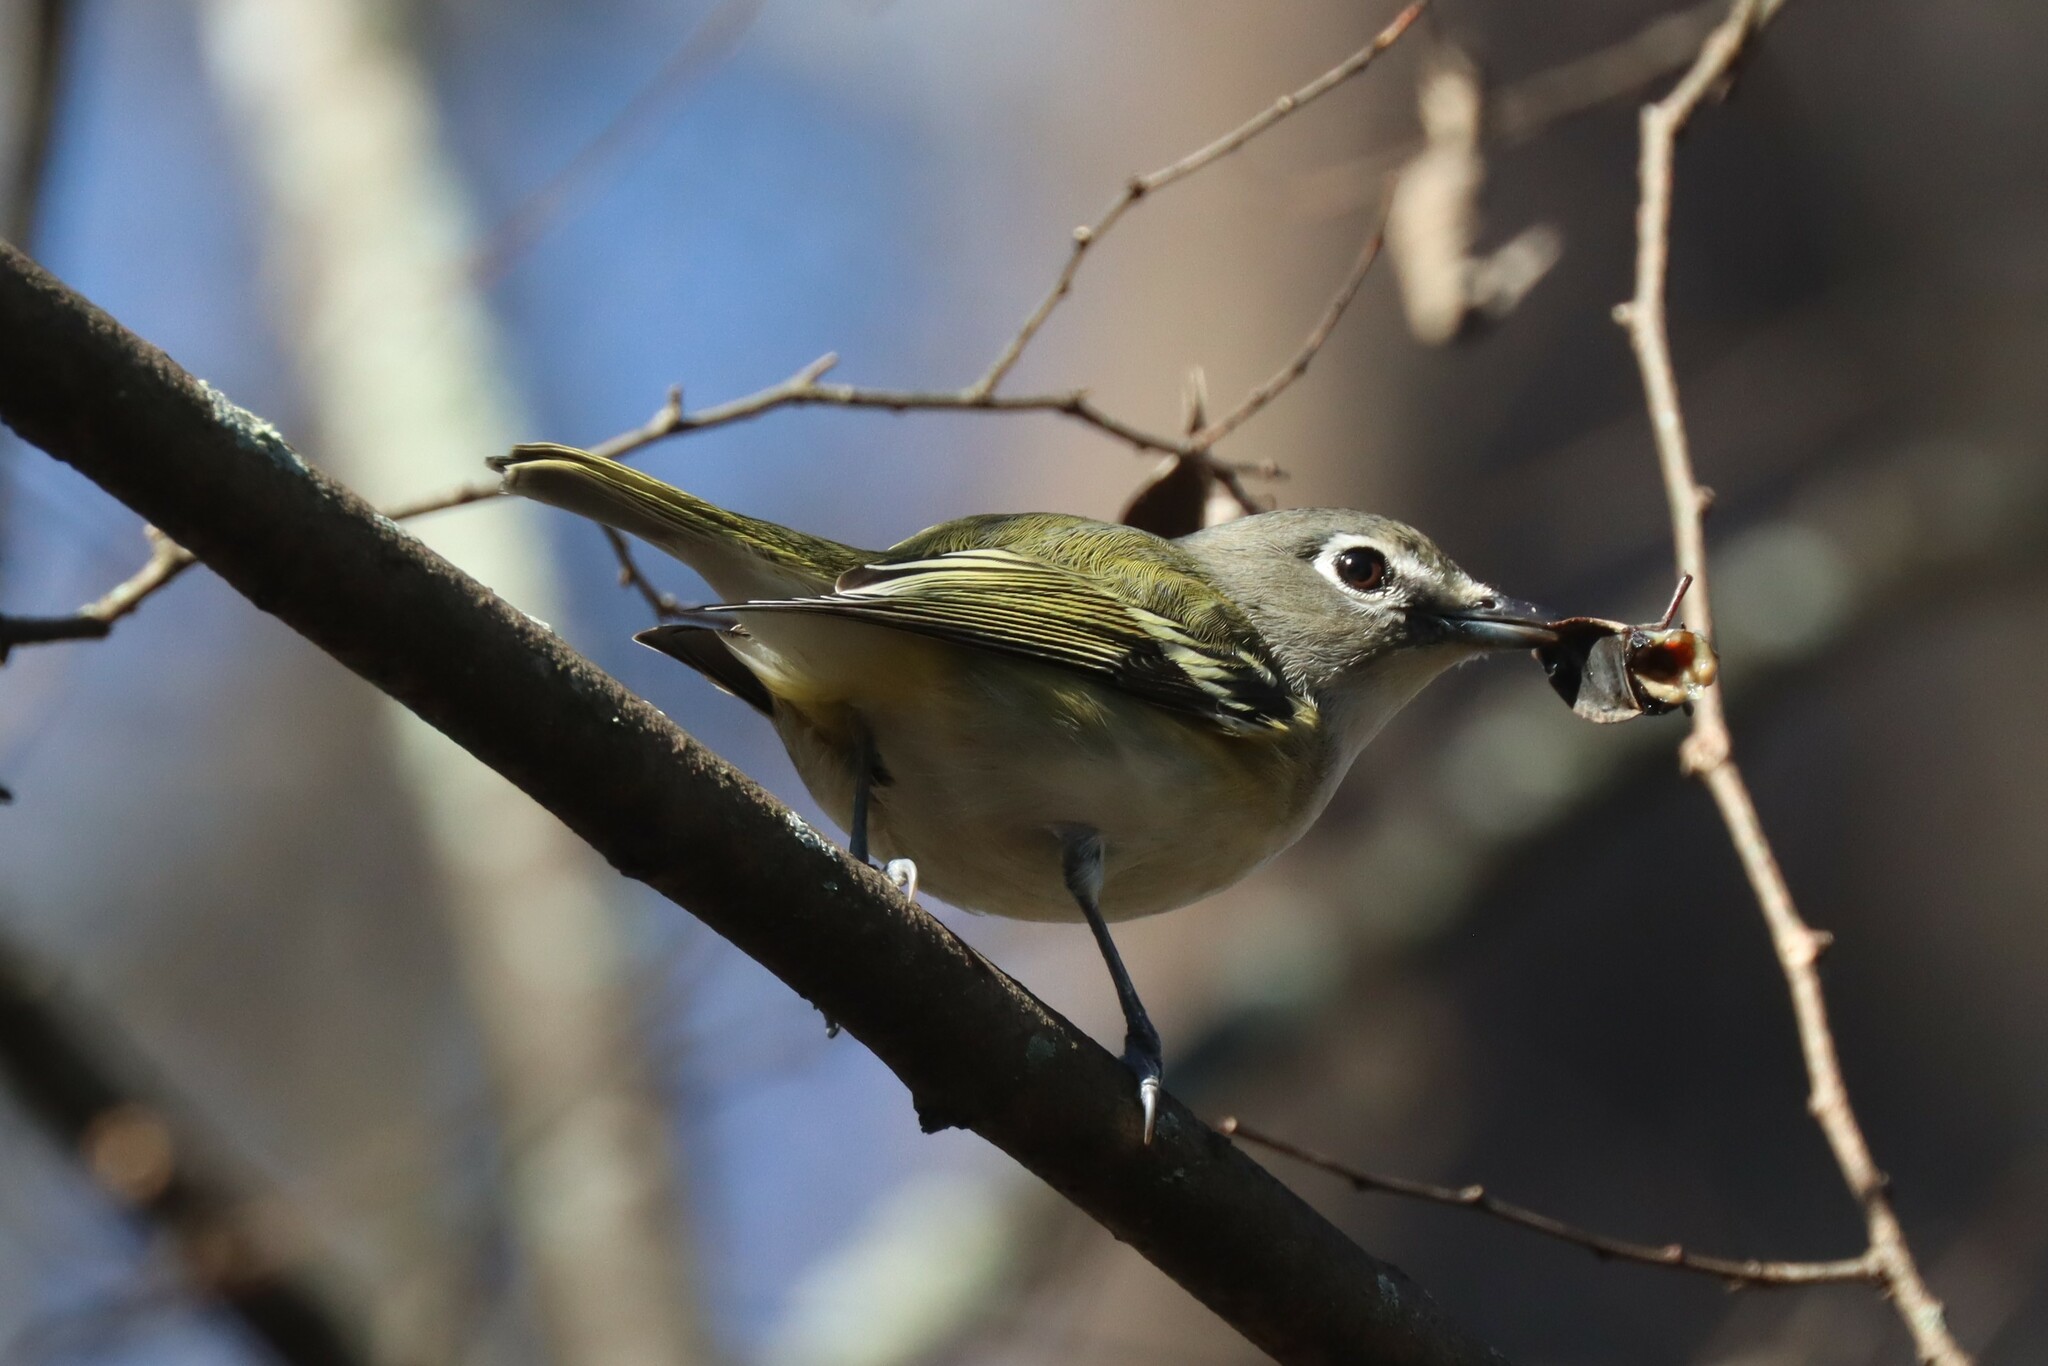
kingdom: Animalia
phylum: Chordata
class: Aves
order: Passeriformes
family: Vireonidae
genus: Vireo
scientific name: Vireo solitarius
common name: Blue-headed vireo
